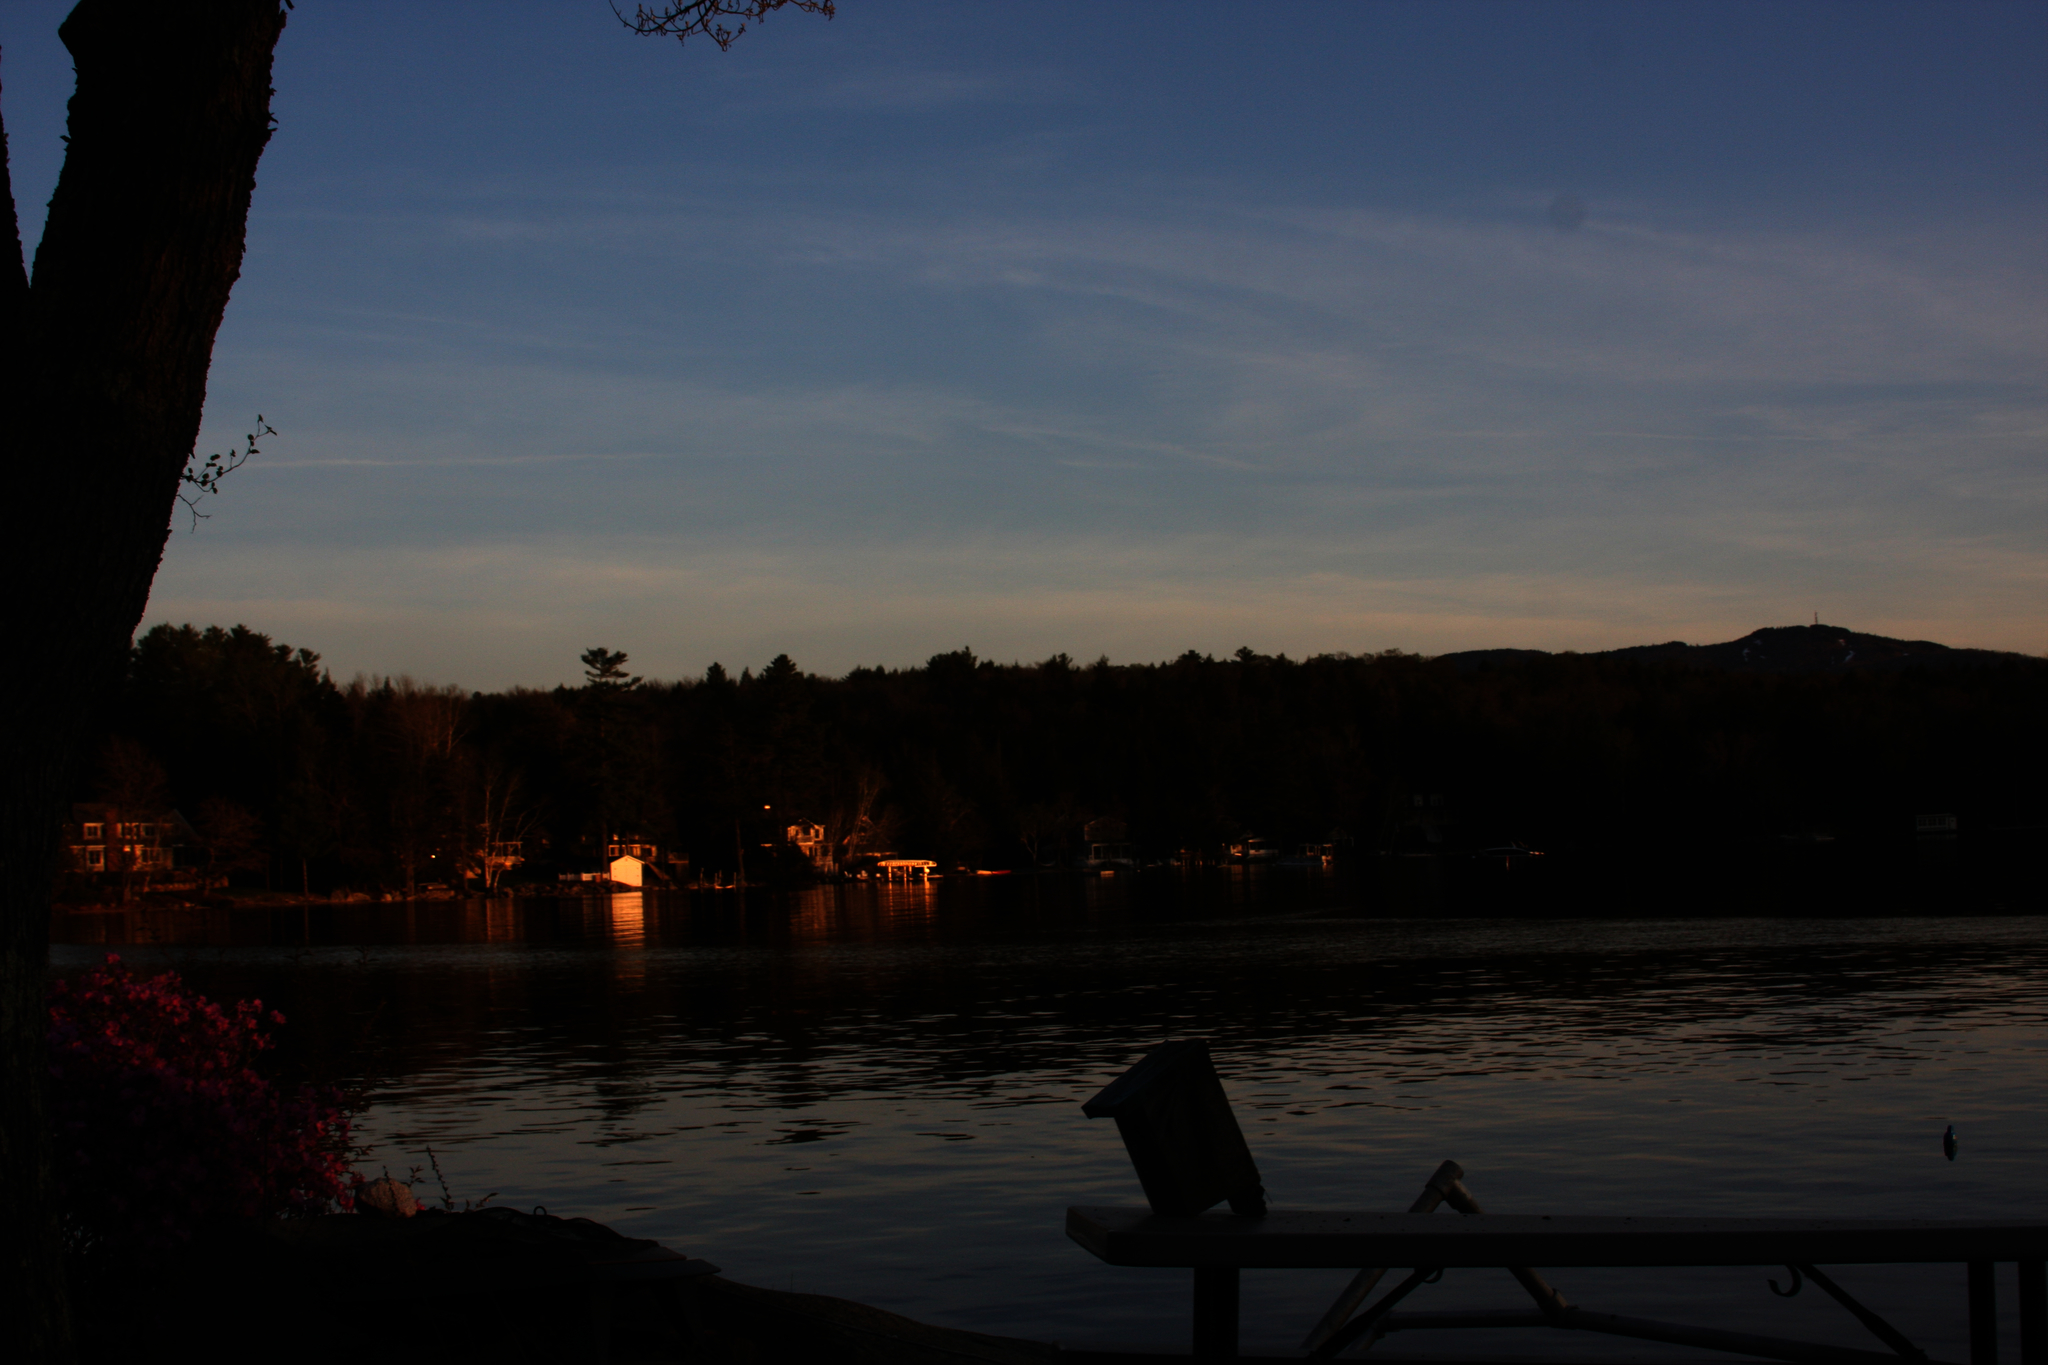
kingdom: Plantae
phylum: Tracheophyta
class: Pinopsida
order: Pinales
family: Pinaceae
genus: Pinus
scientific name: Pinus strobus
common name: Weymouth pine
